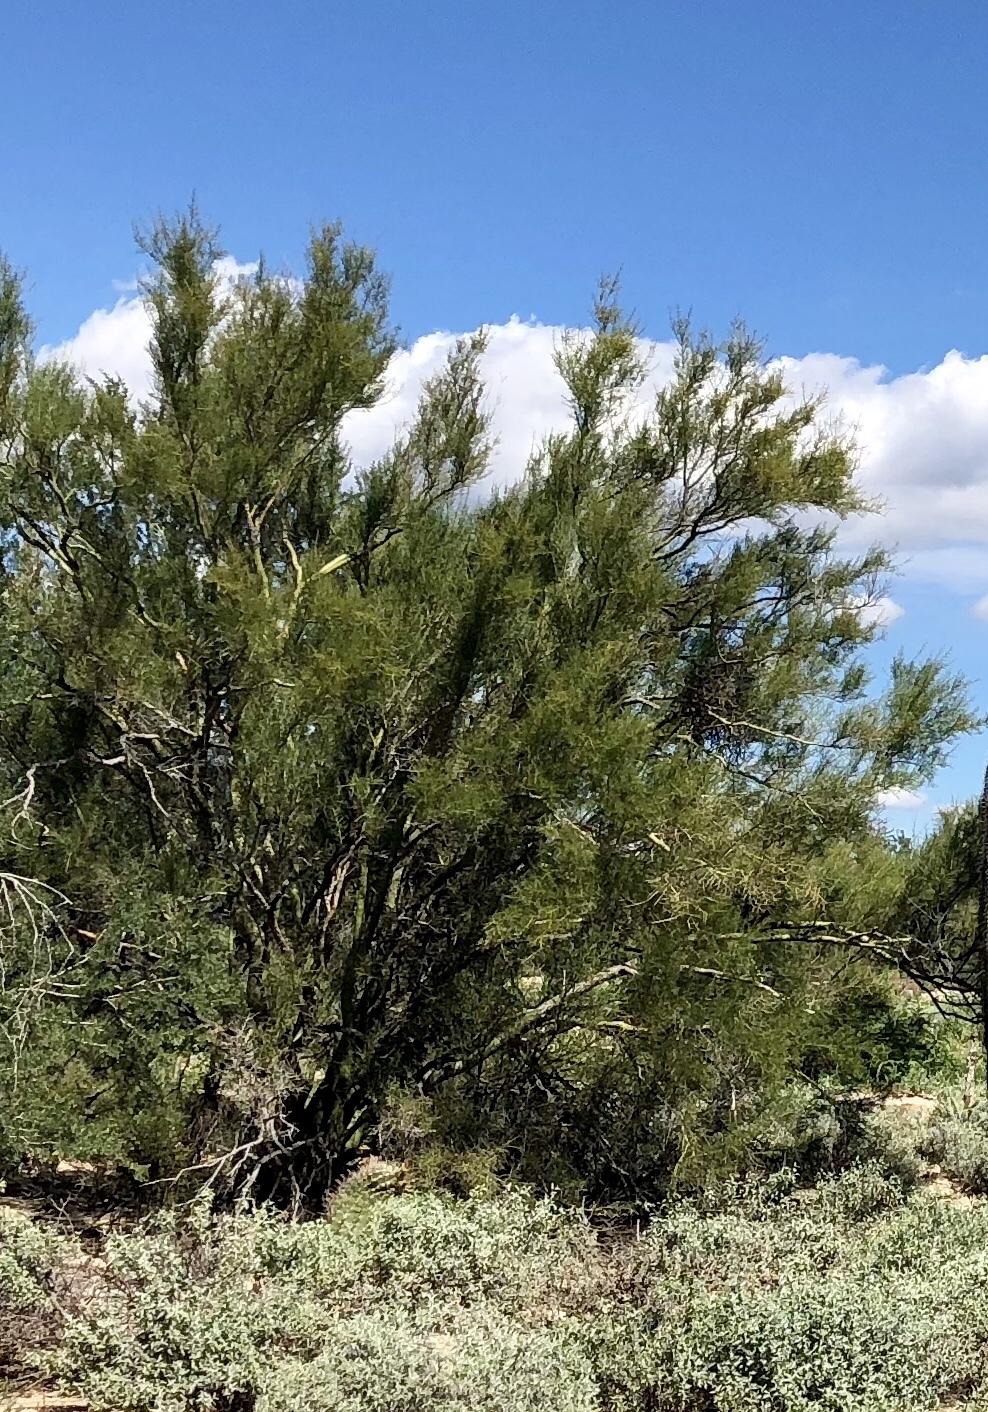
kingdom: Plantae
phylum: Tracheophyta
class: Magnoliopsida
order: Fabales
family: Fabaceae
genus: Parkinsonia
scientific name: Parkinsonia microphylla
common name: Yellow paloverde
